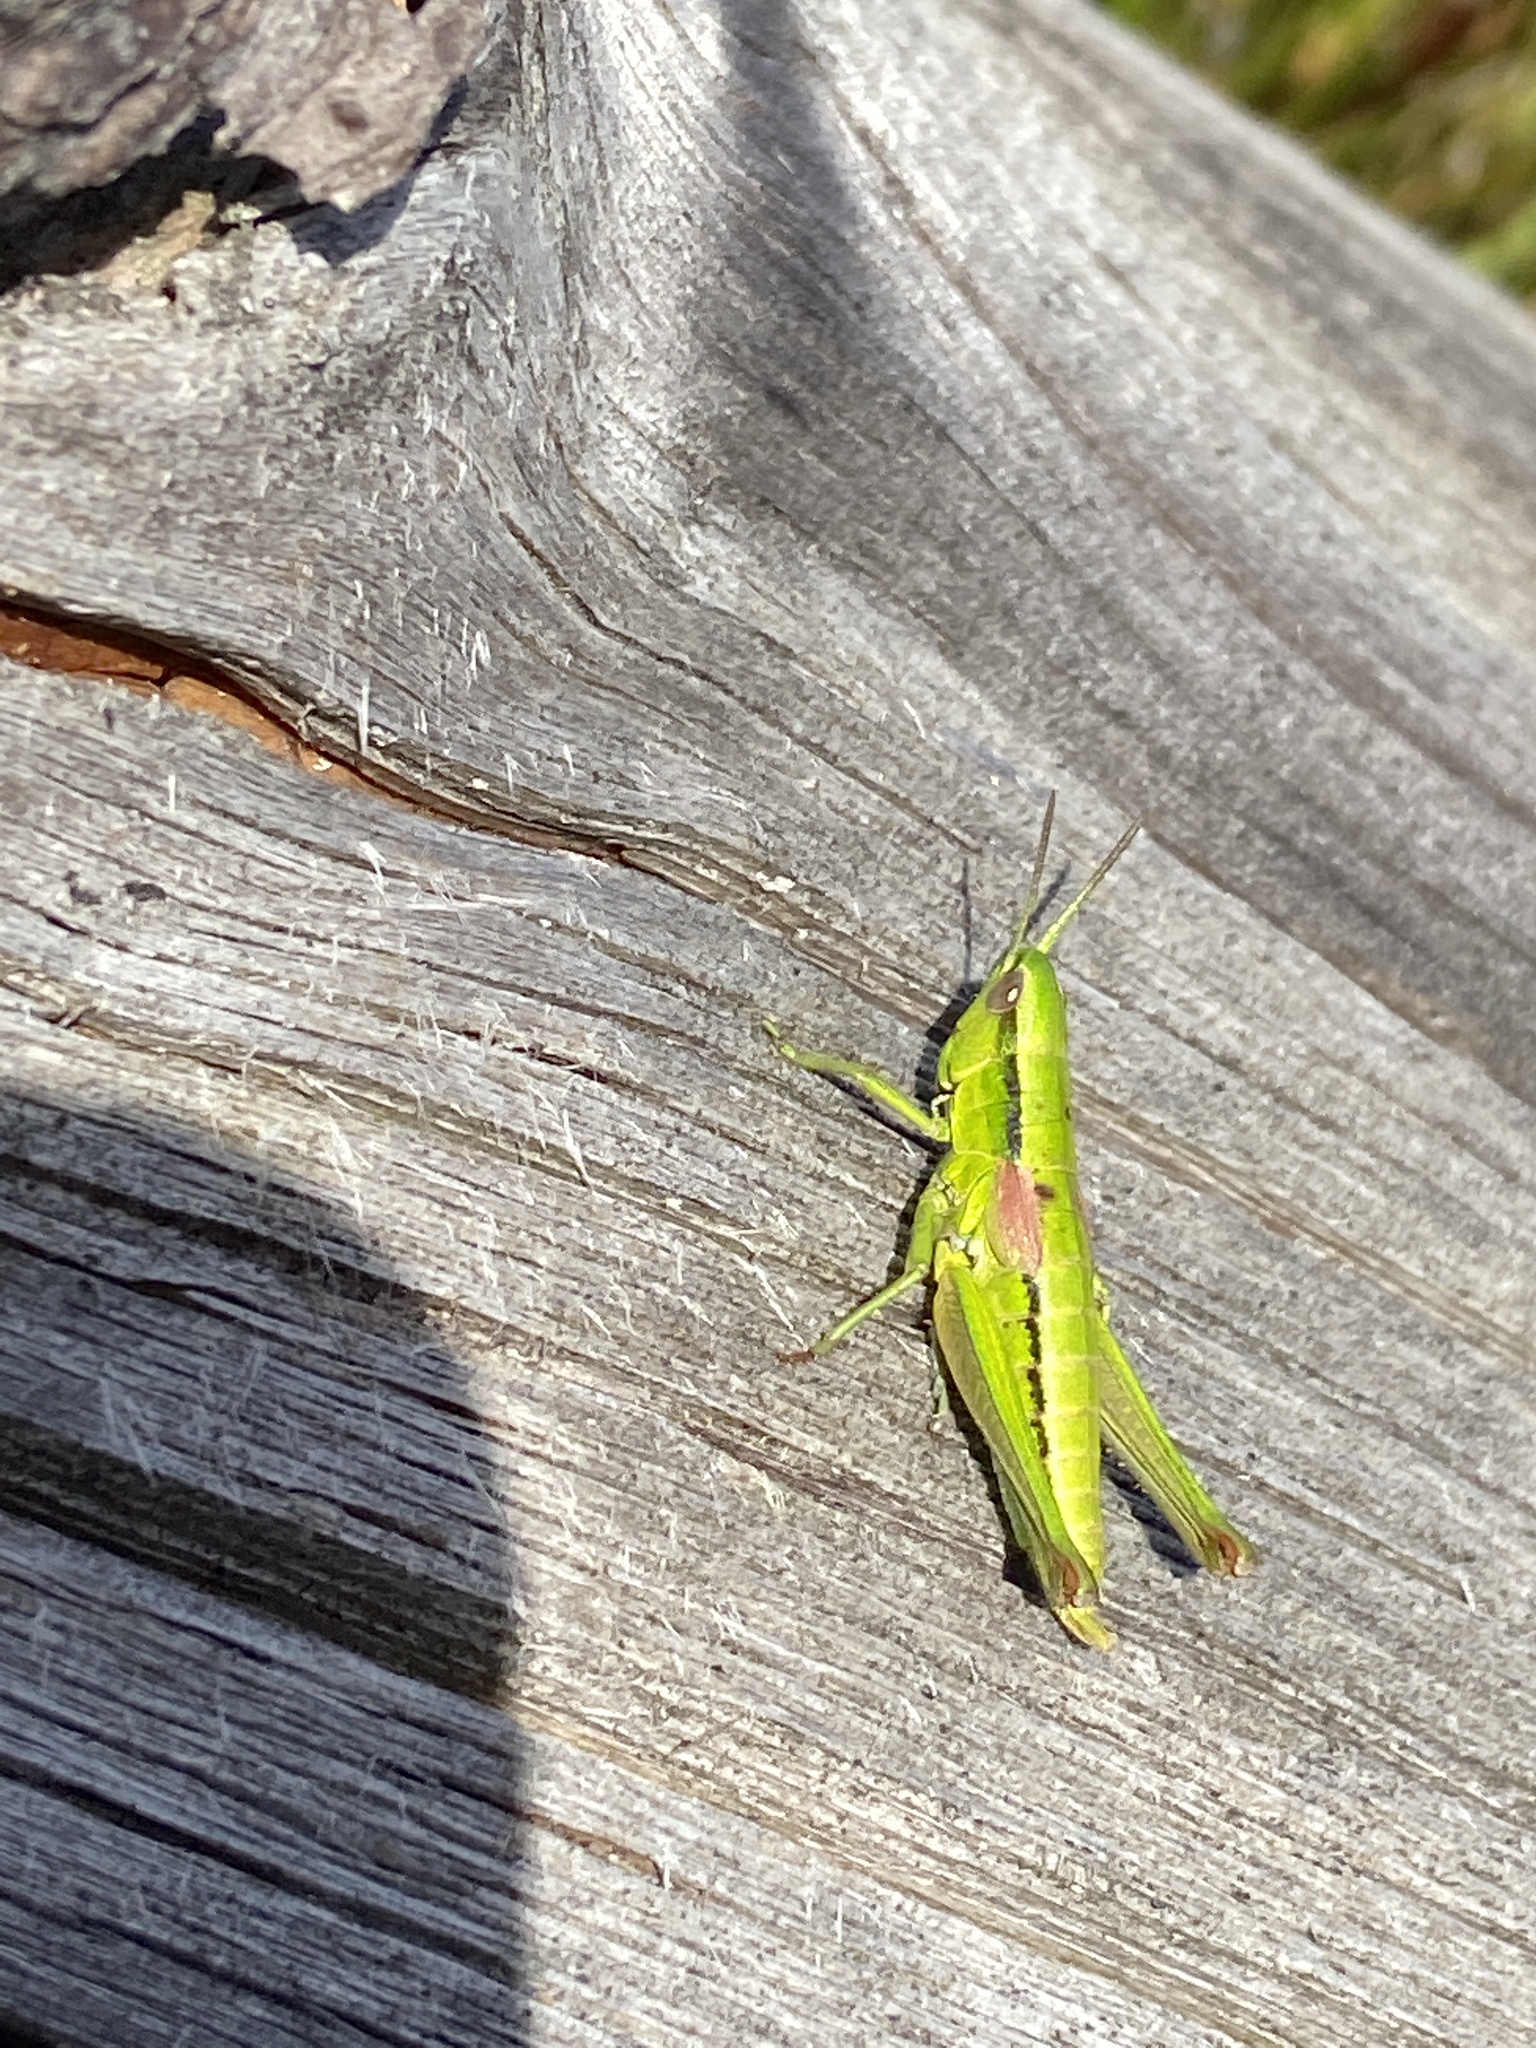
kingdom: Animalia
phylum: Arthropoda
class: Insecta
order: Orthoptera
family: Acrididae
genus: Euthystira
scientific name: Euthystira brachyptera
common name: Small gold grasshopper
